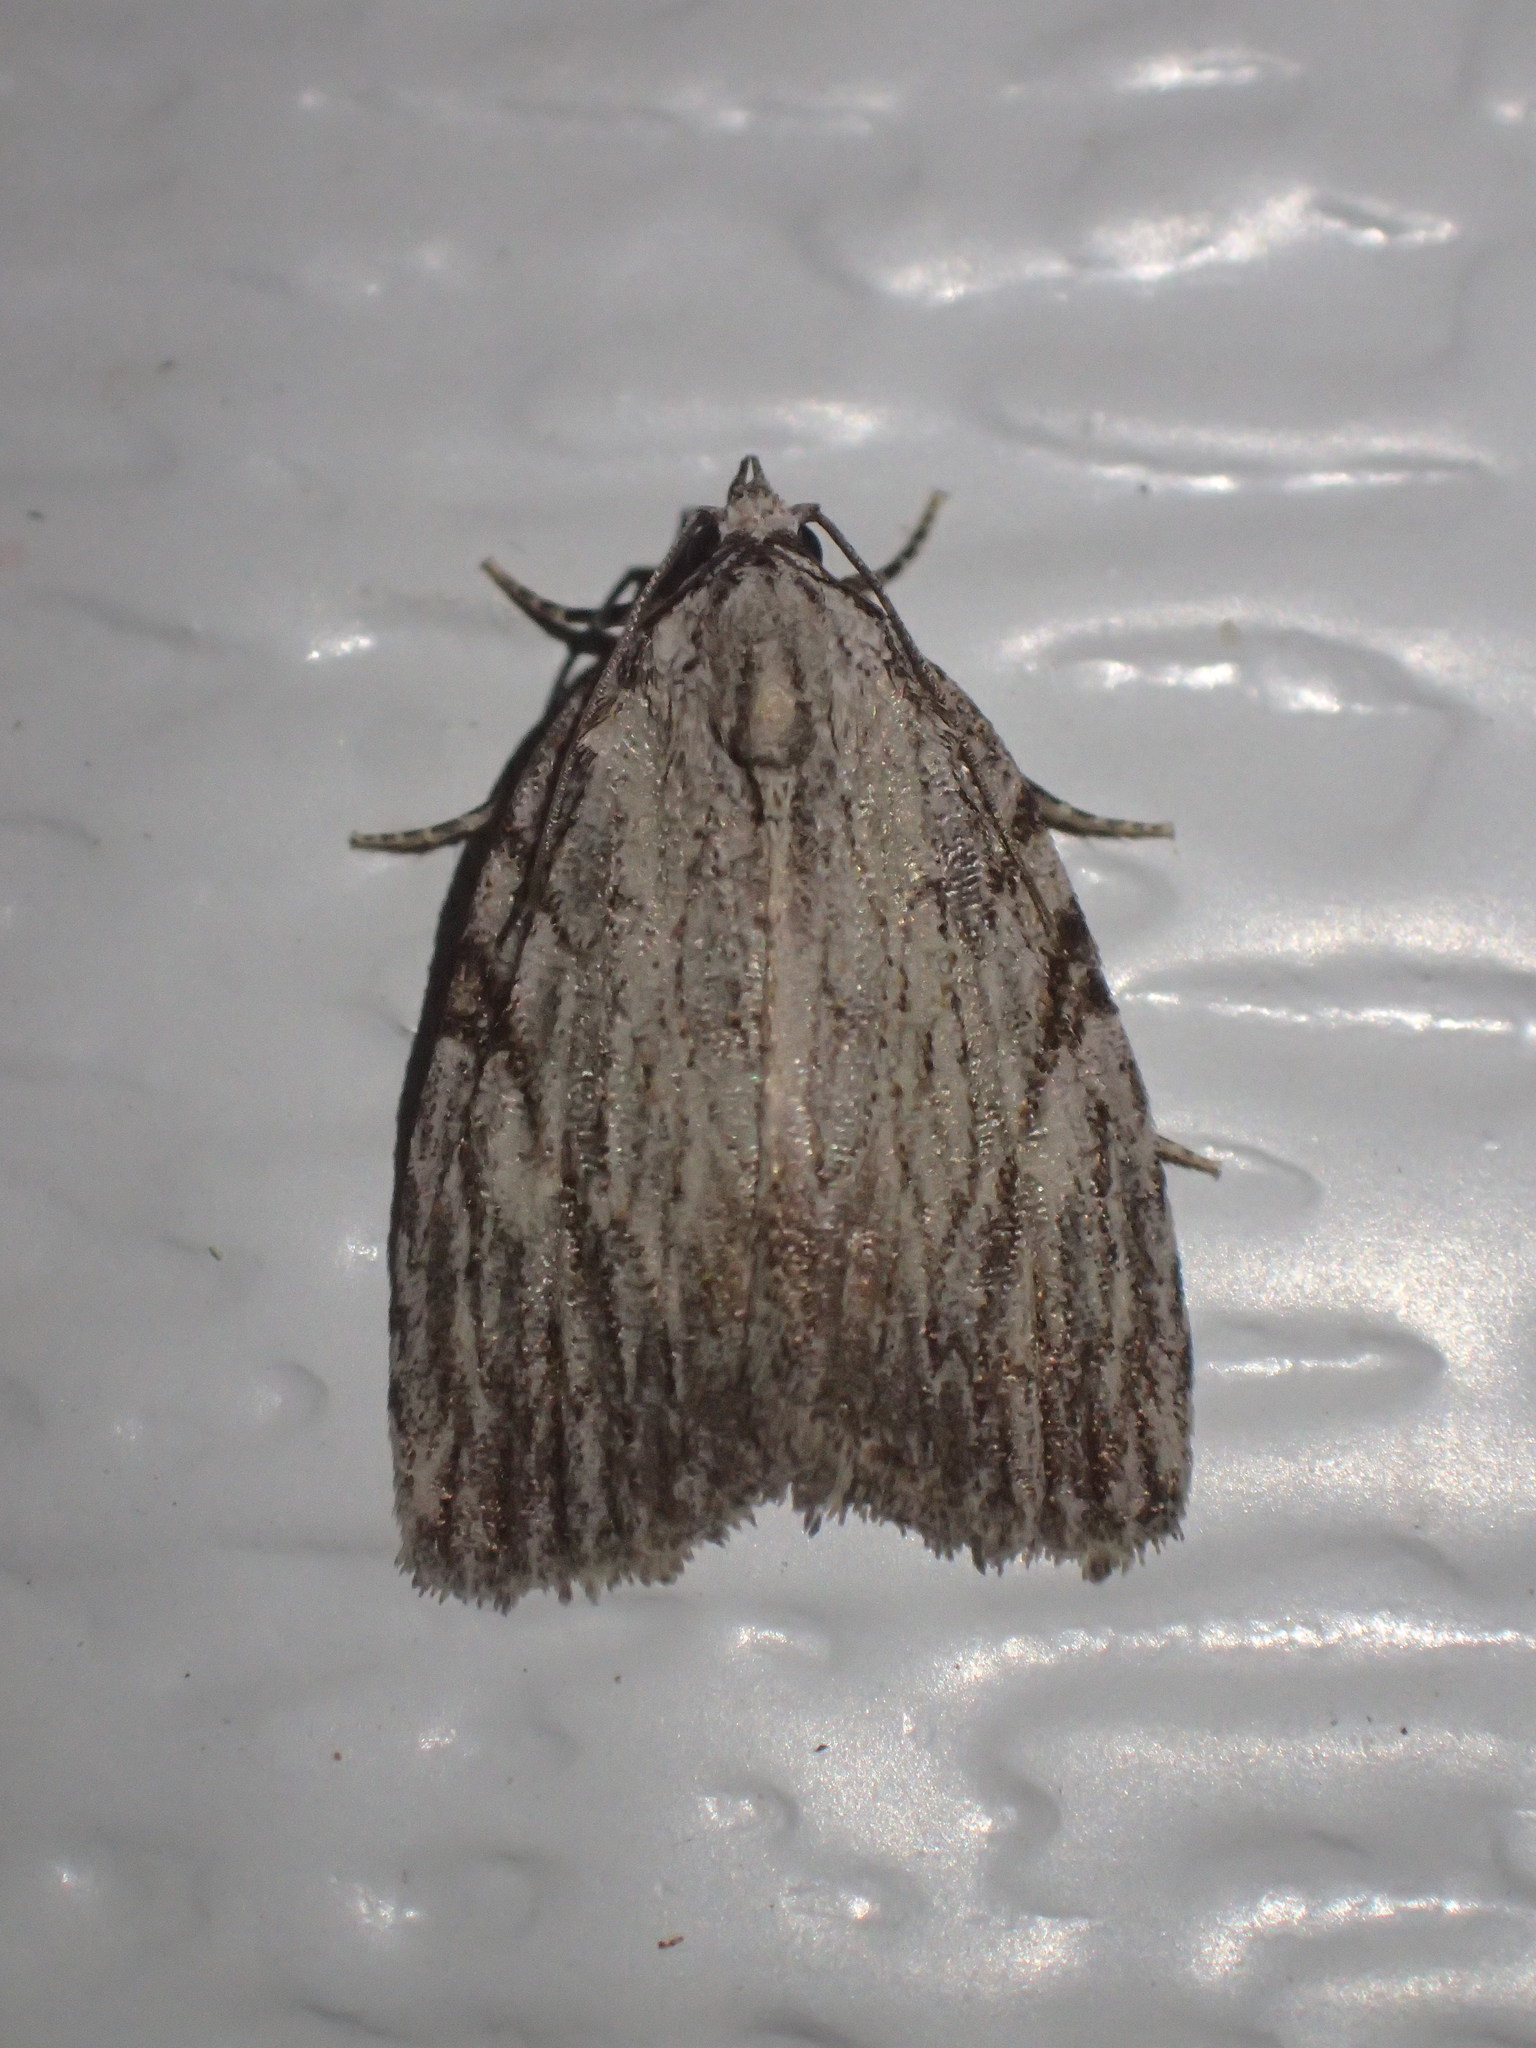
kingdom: Animalia
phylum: Arthropoda
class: Insecta
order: Lepidoptera
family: Noctuidae
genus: Balsa
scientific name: Balsa tristrigella
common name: Three-lined balsa moth
